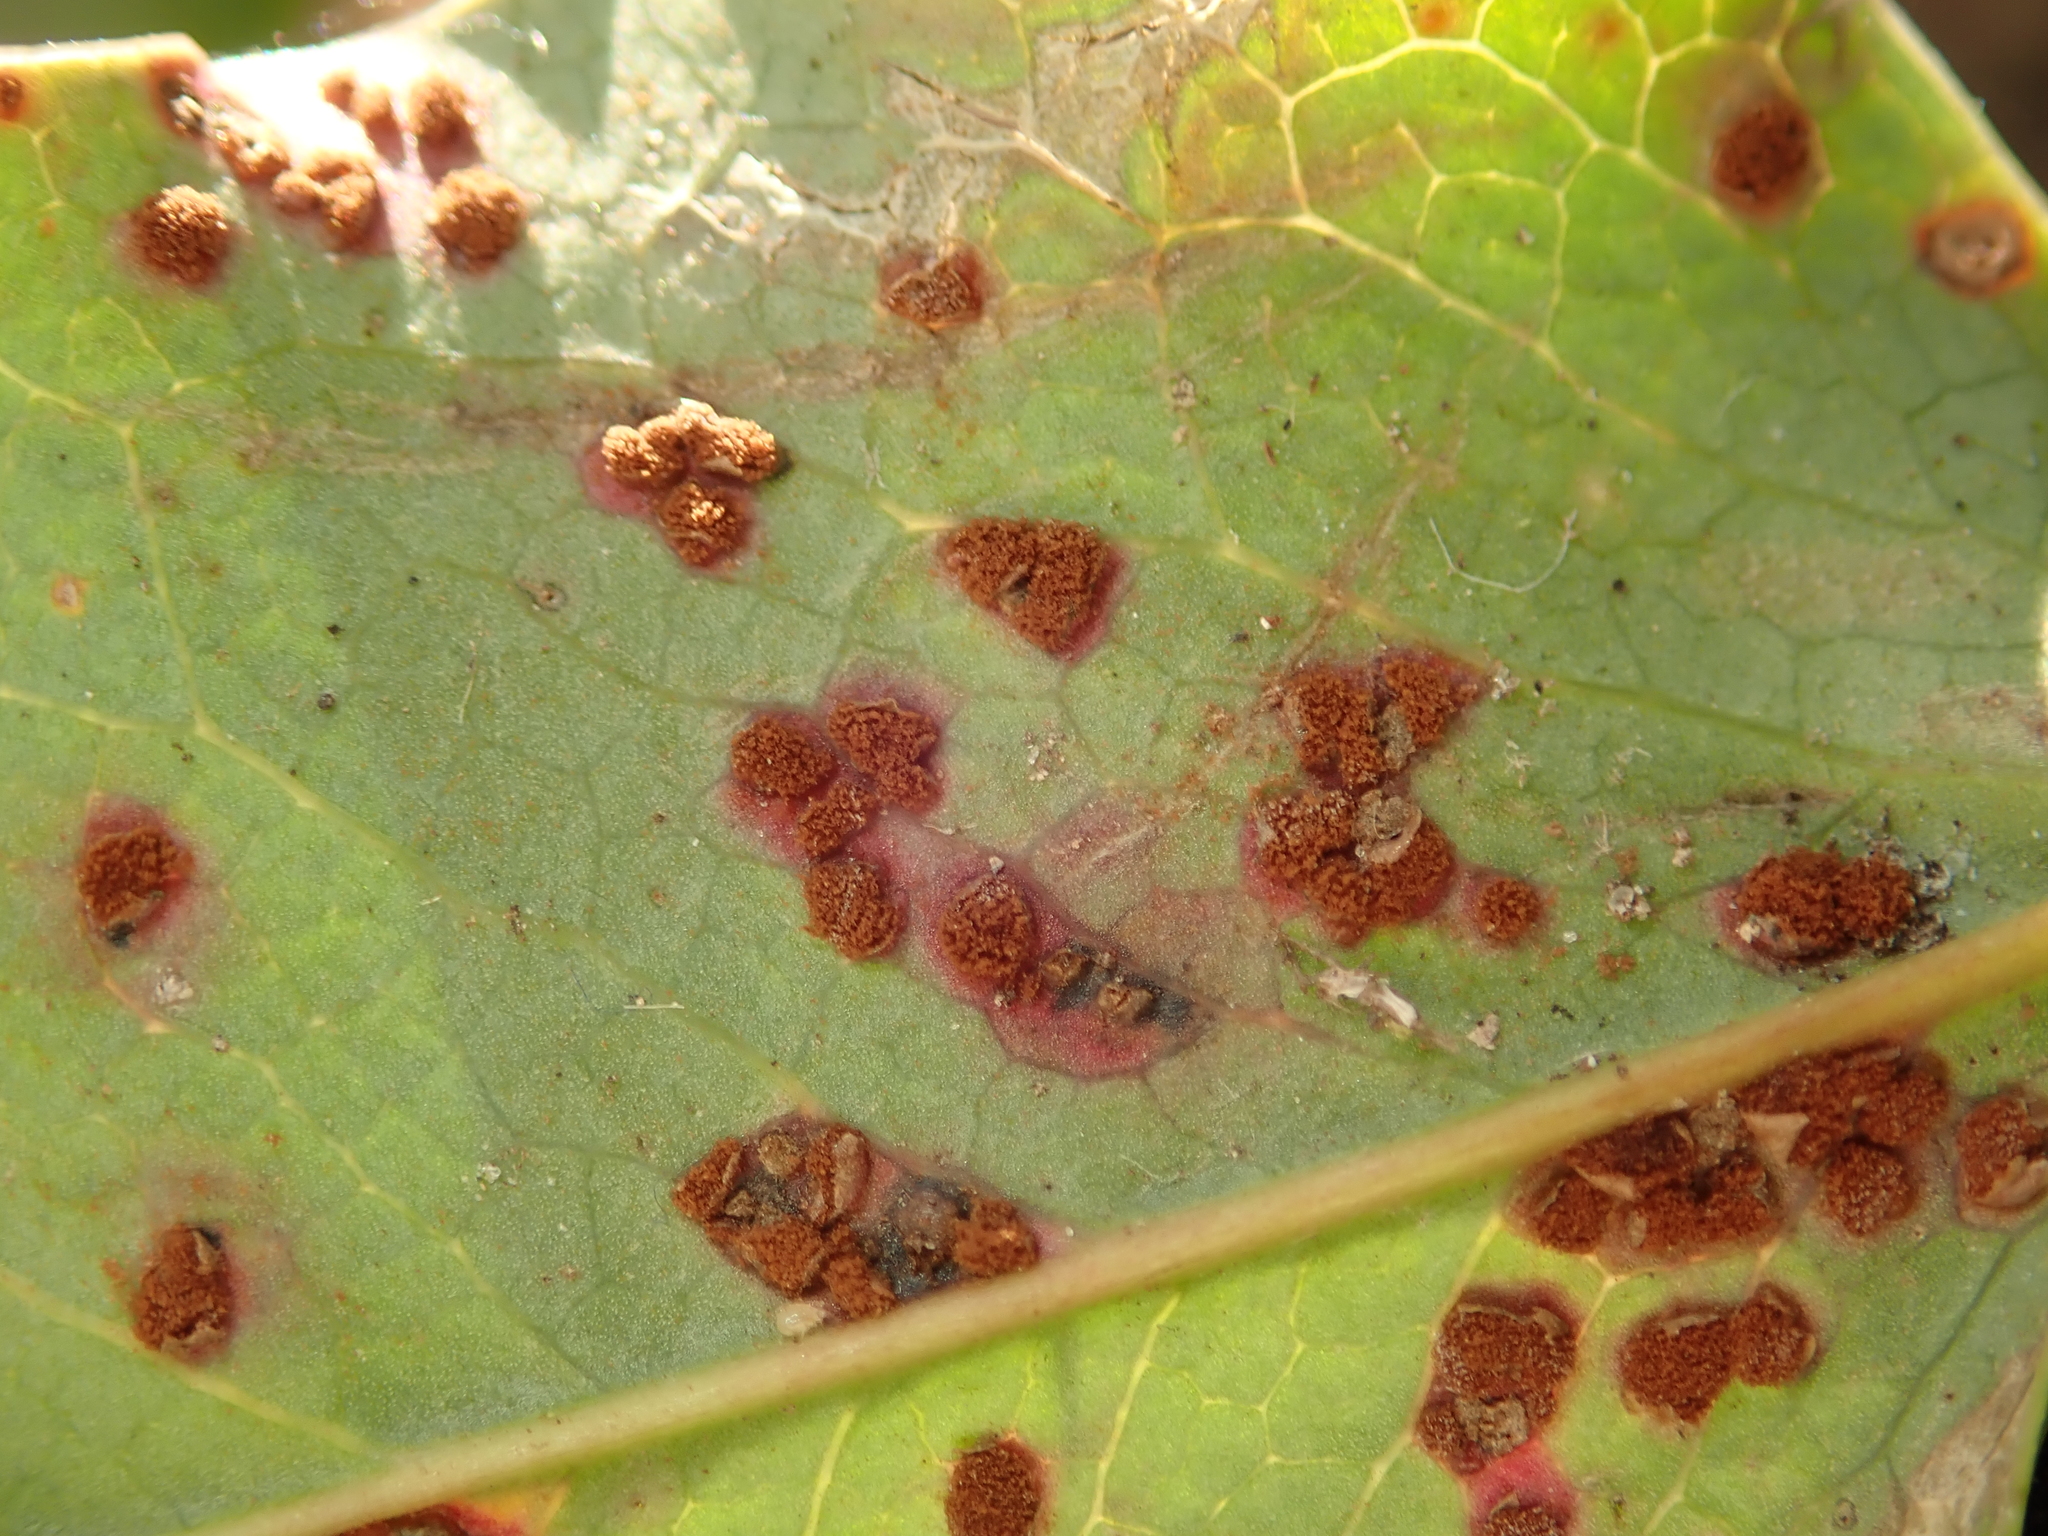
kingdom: Fungi
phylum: Basidiomycota
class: Pucciniomycetes
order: Pucciniales
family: Pucciniaceae
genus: Cumminsiella
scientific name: Cumminsiella mirabilissima
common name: Mahonia rust
